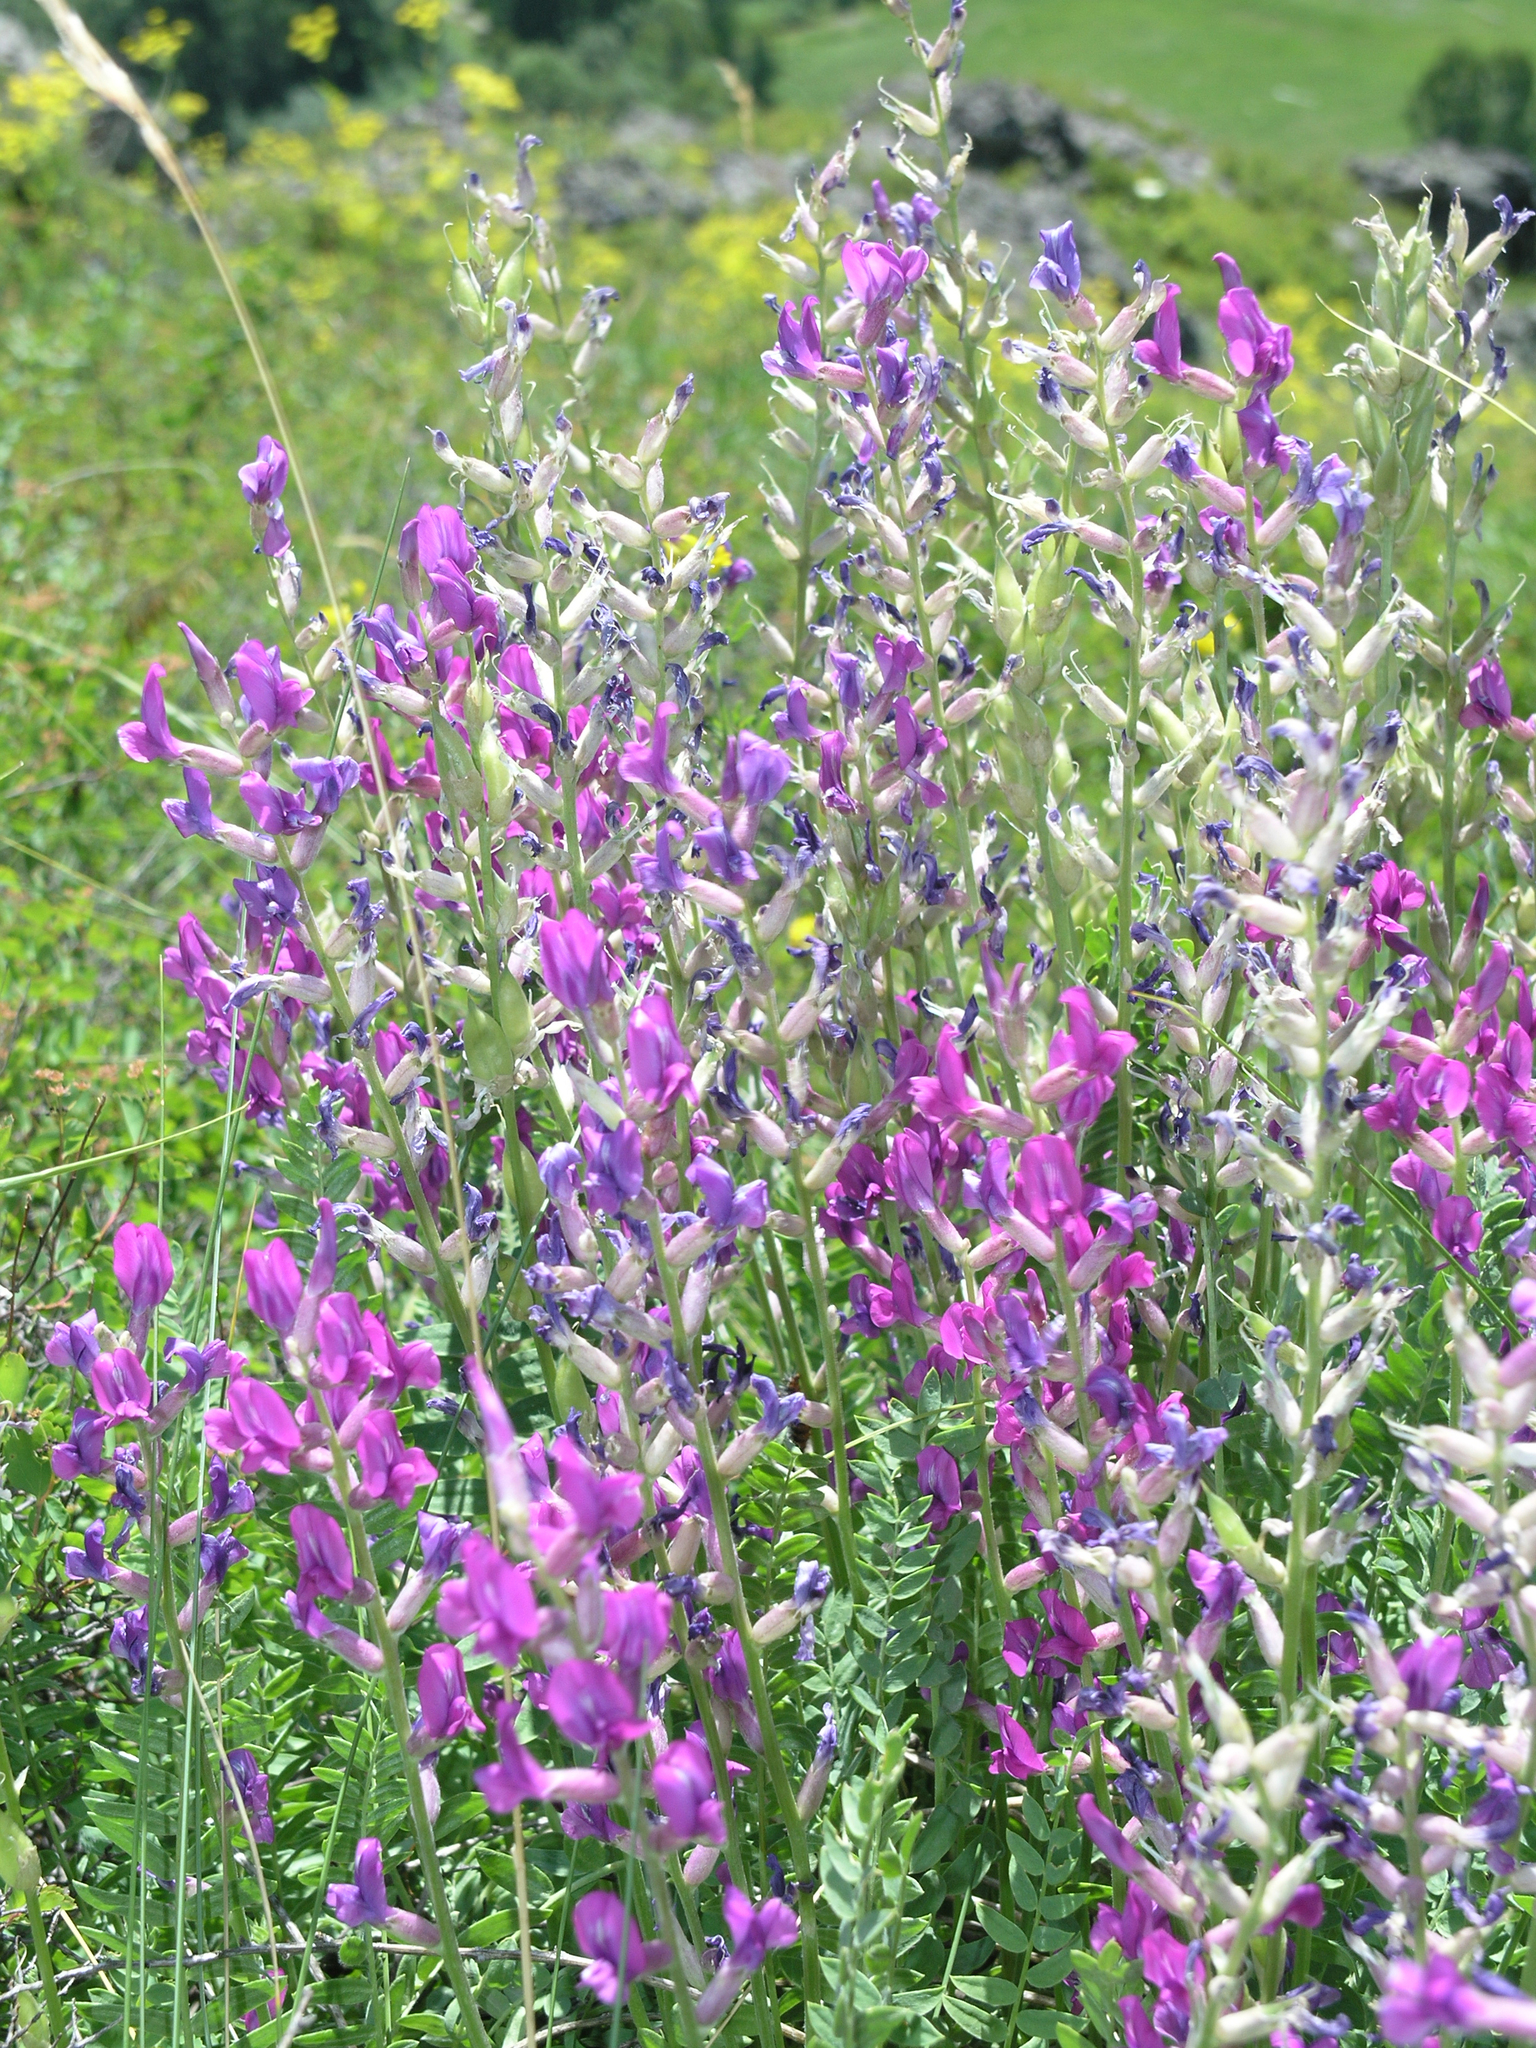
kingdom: Plantae
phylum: Tracheophyta
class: Magnoliopsida
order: Fabales
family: Fabaceae
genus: Oxytropis
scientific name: Oxytropis confusa
